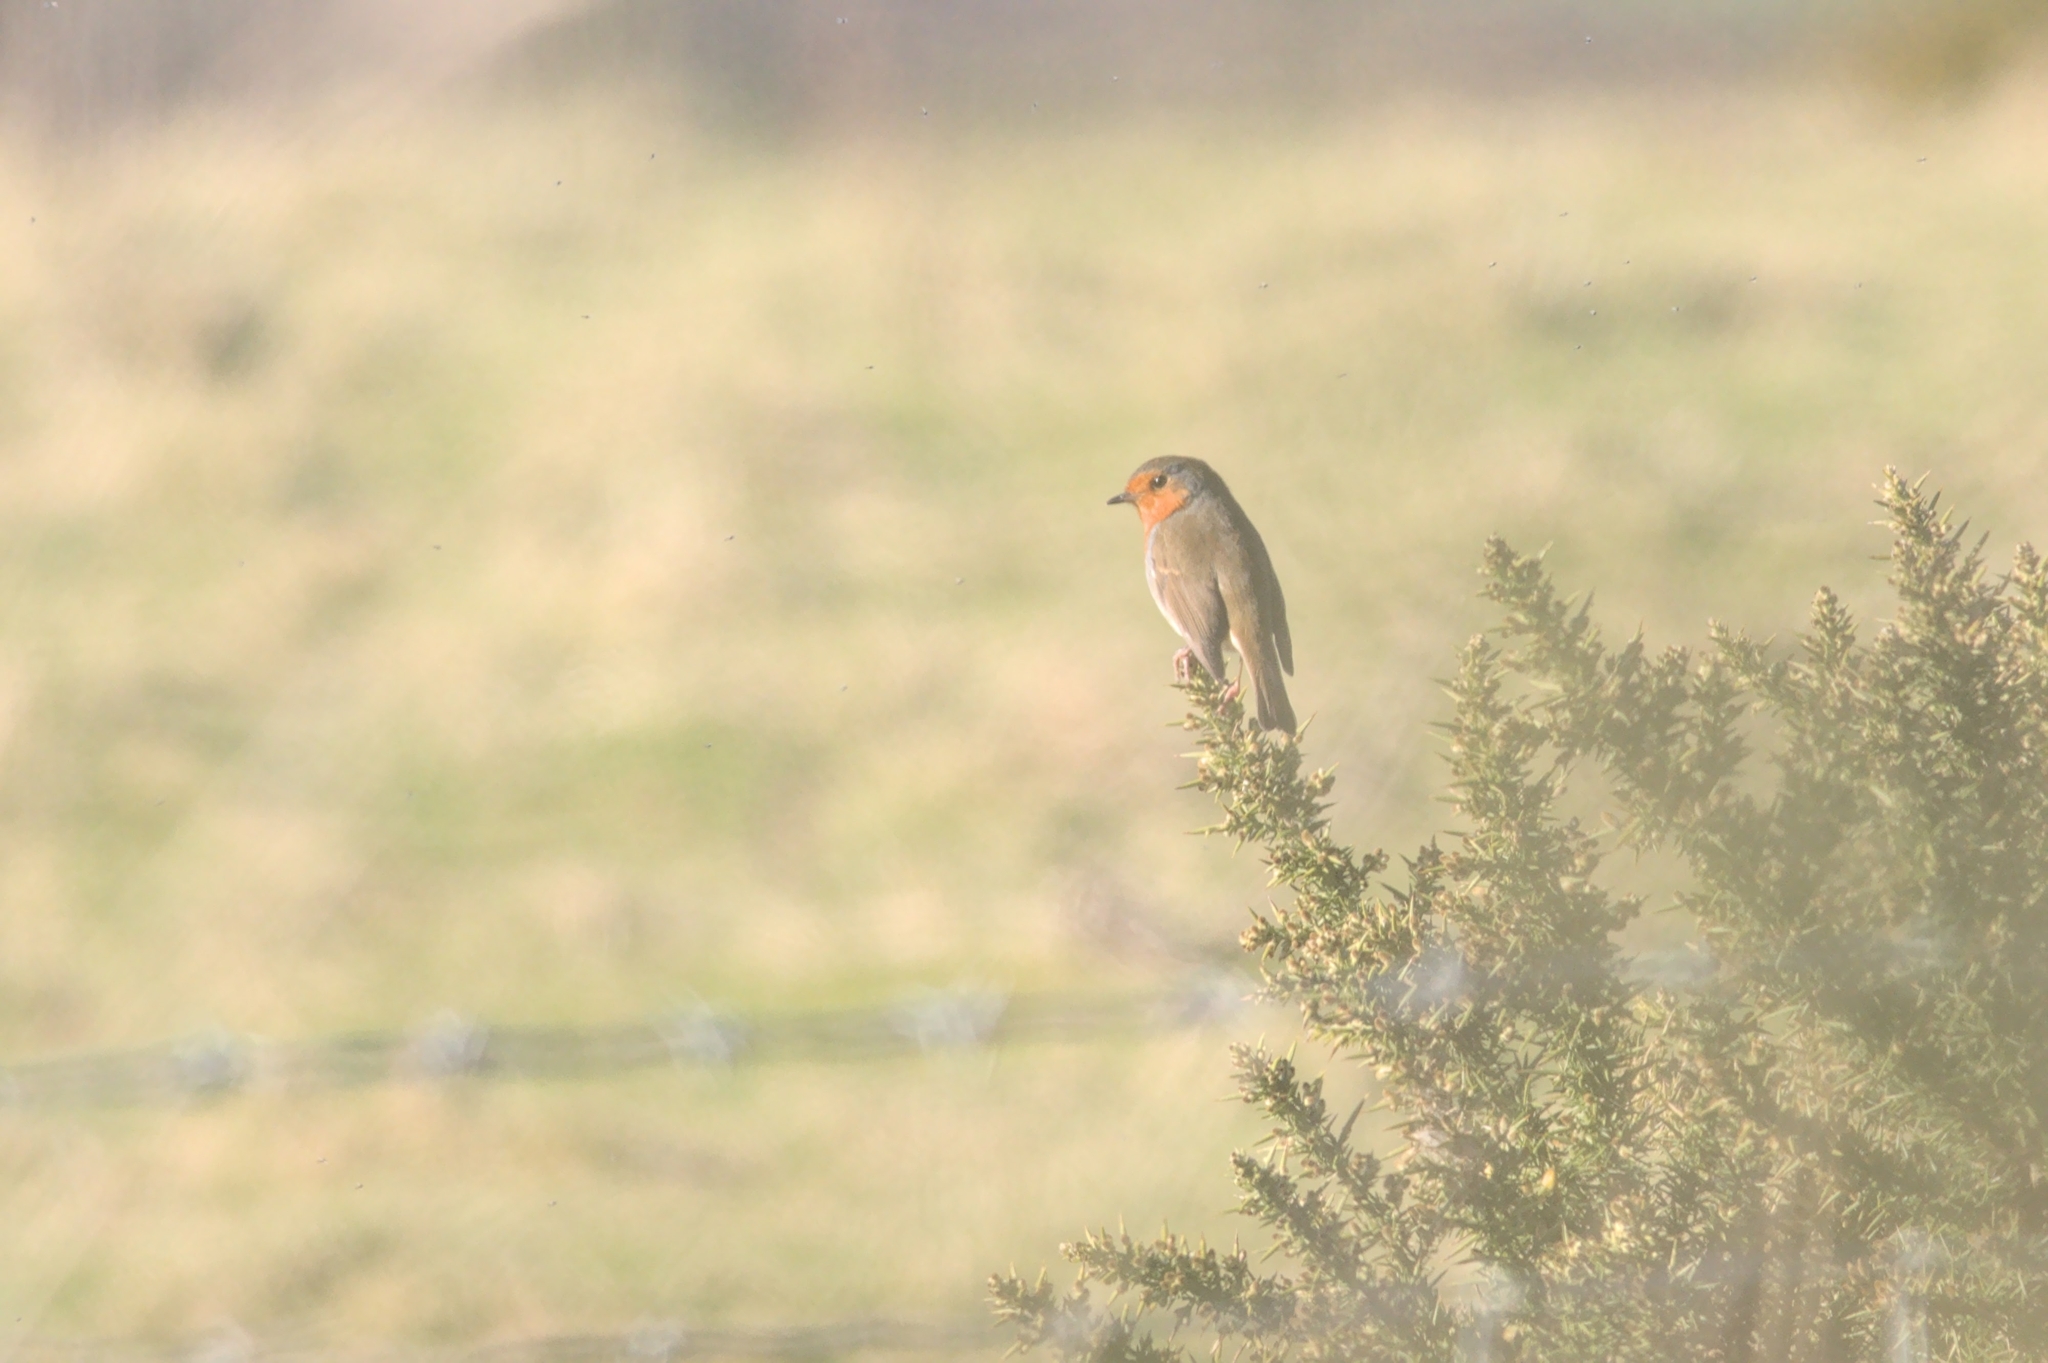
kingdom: Animalia
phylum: Chordata
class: Aves
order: Passeriformes
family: Muscicapidae
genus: Erithacus
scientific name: Erithacus rubecula
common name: European robin
